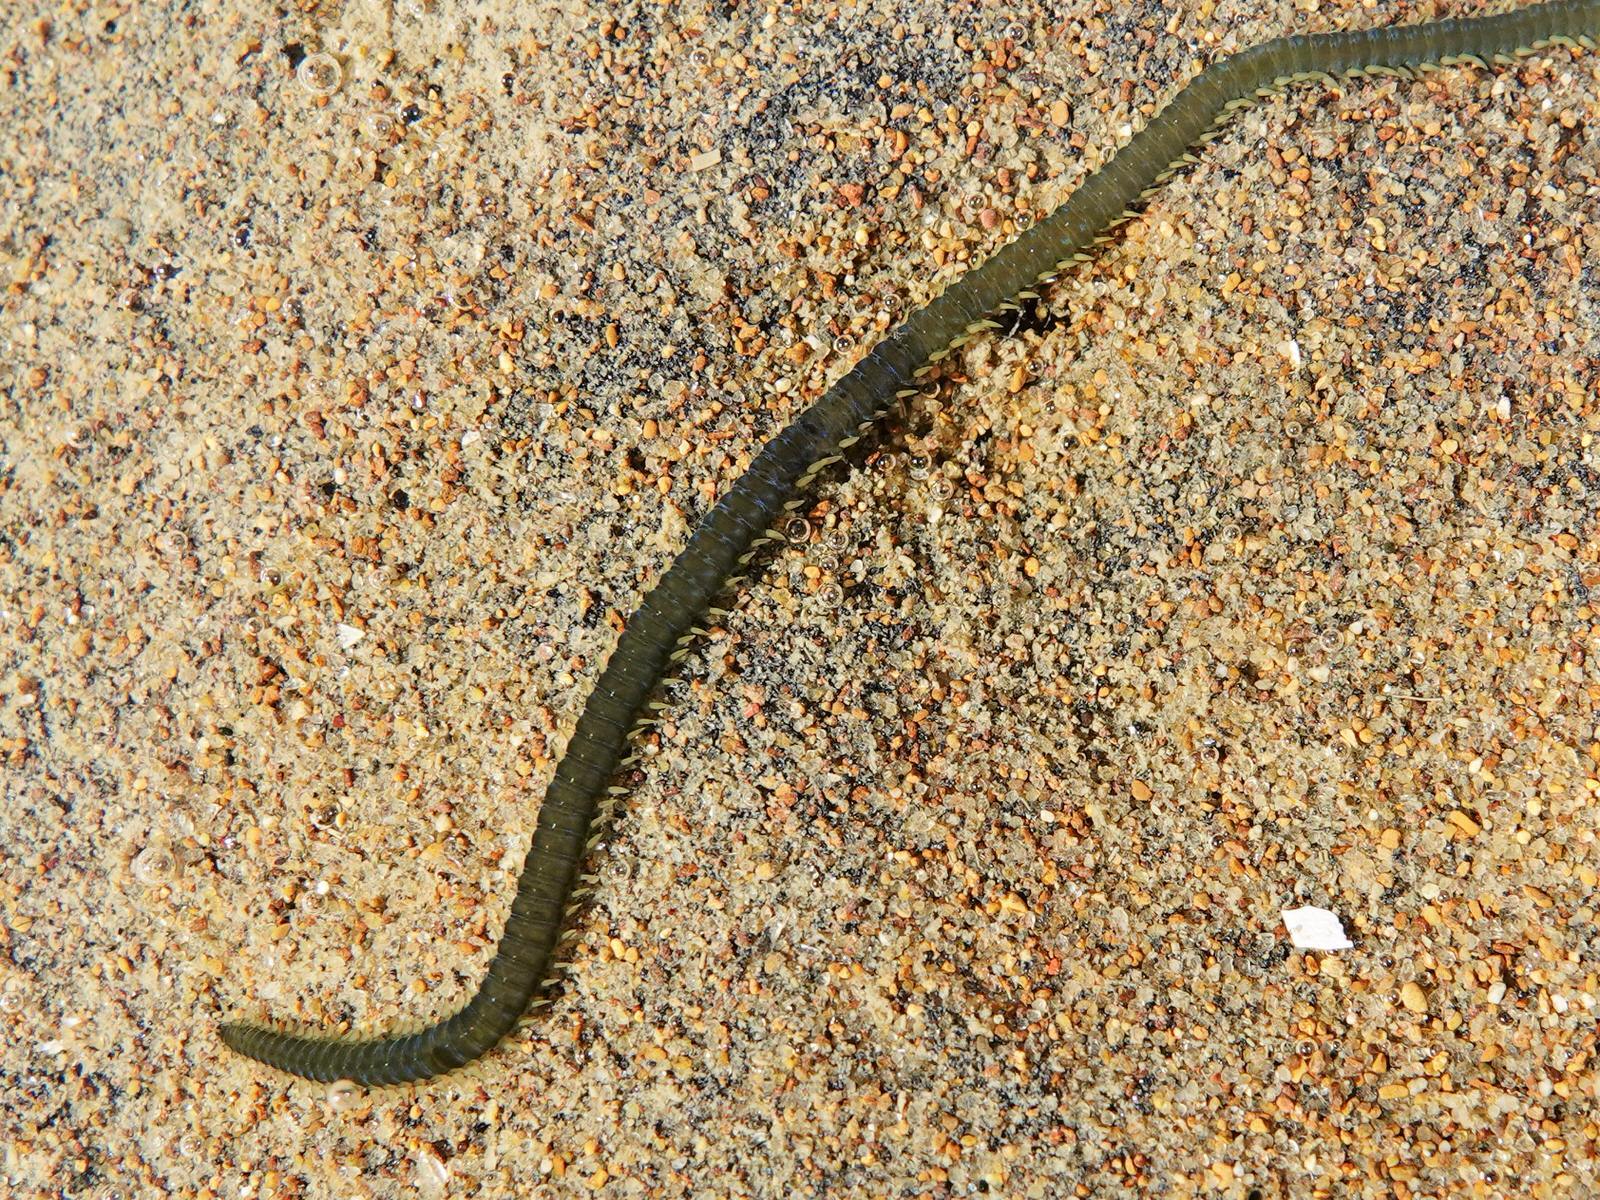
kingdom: Animalia
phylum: Annelida
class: Polychaeta
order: Phyllodocida
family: Phyllodocidae
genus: Eulalia
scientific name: Eulalia microphylla
